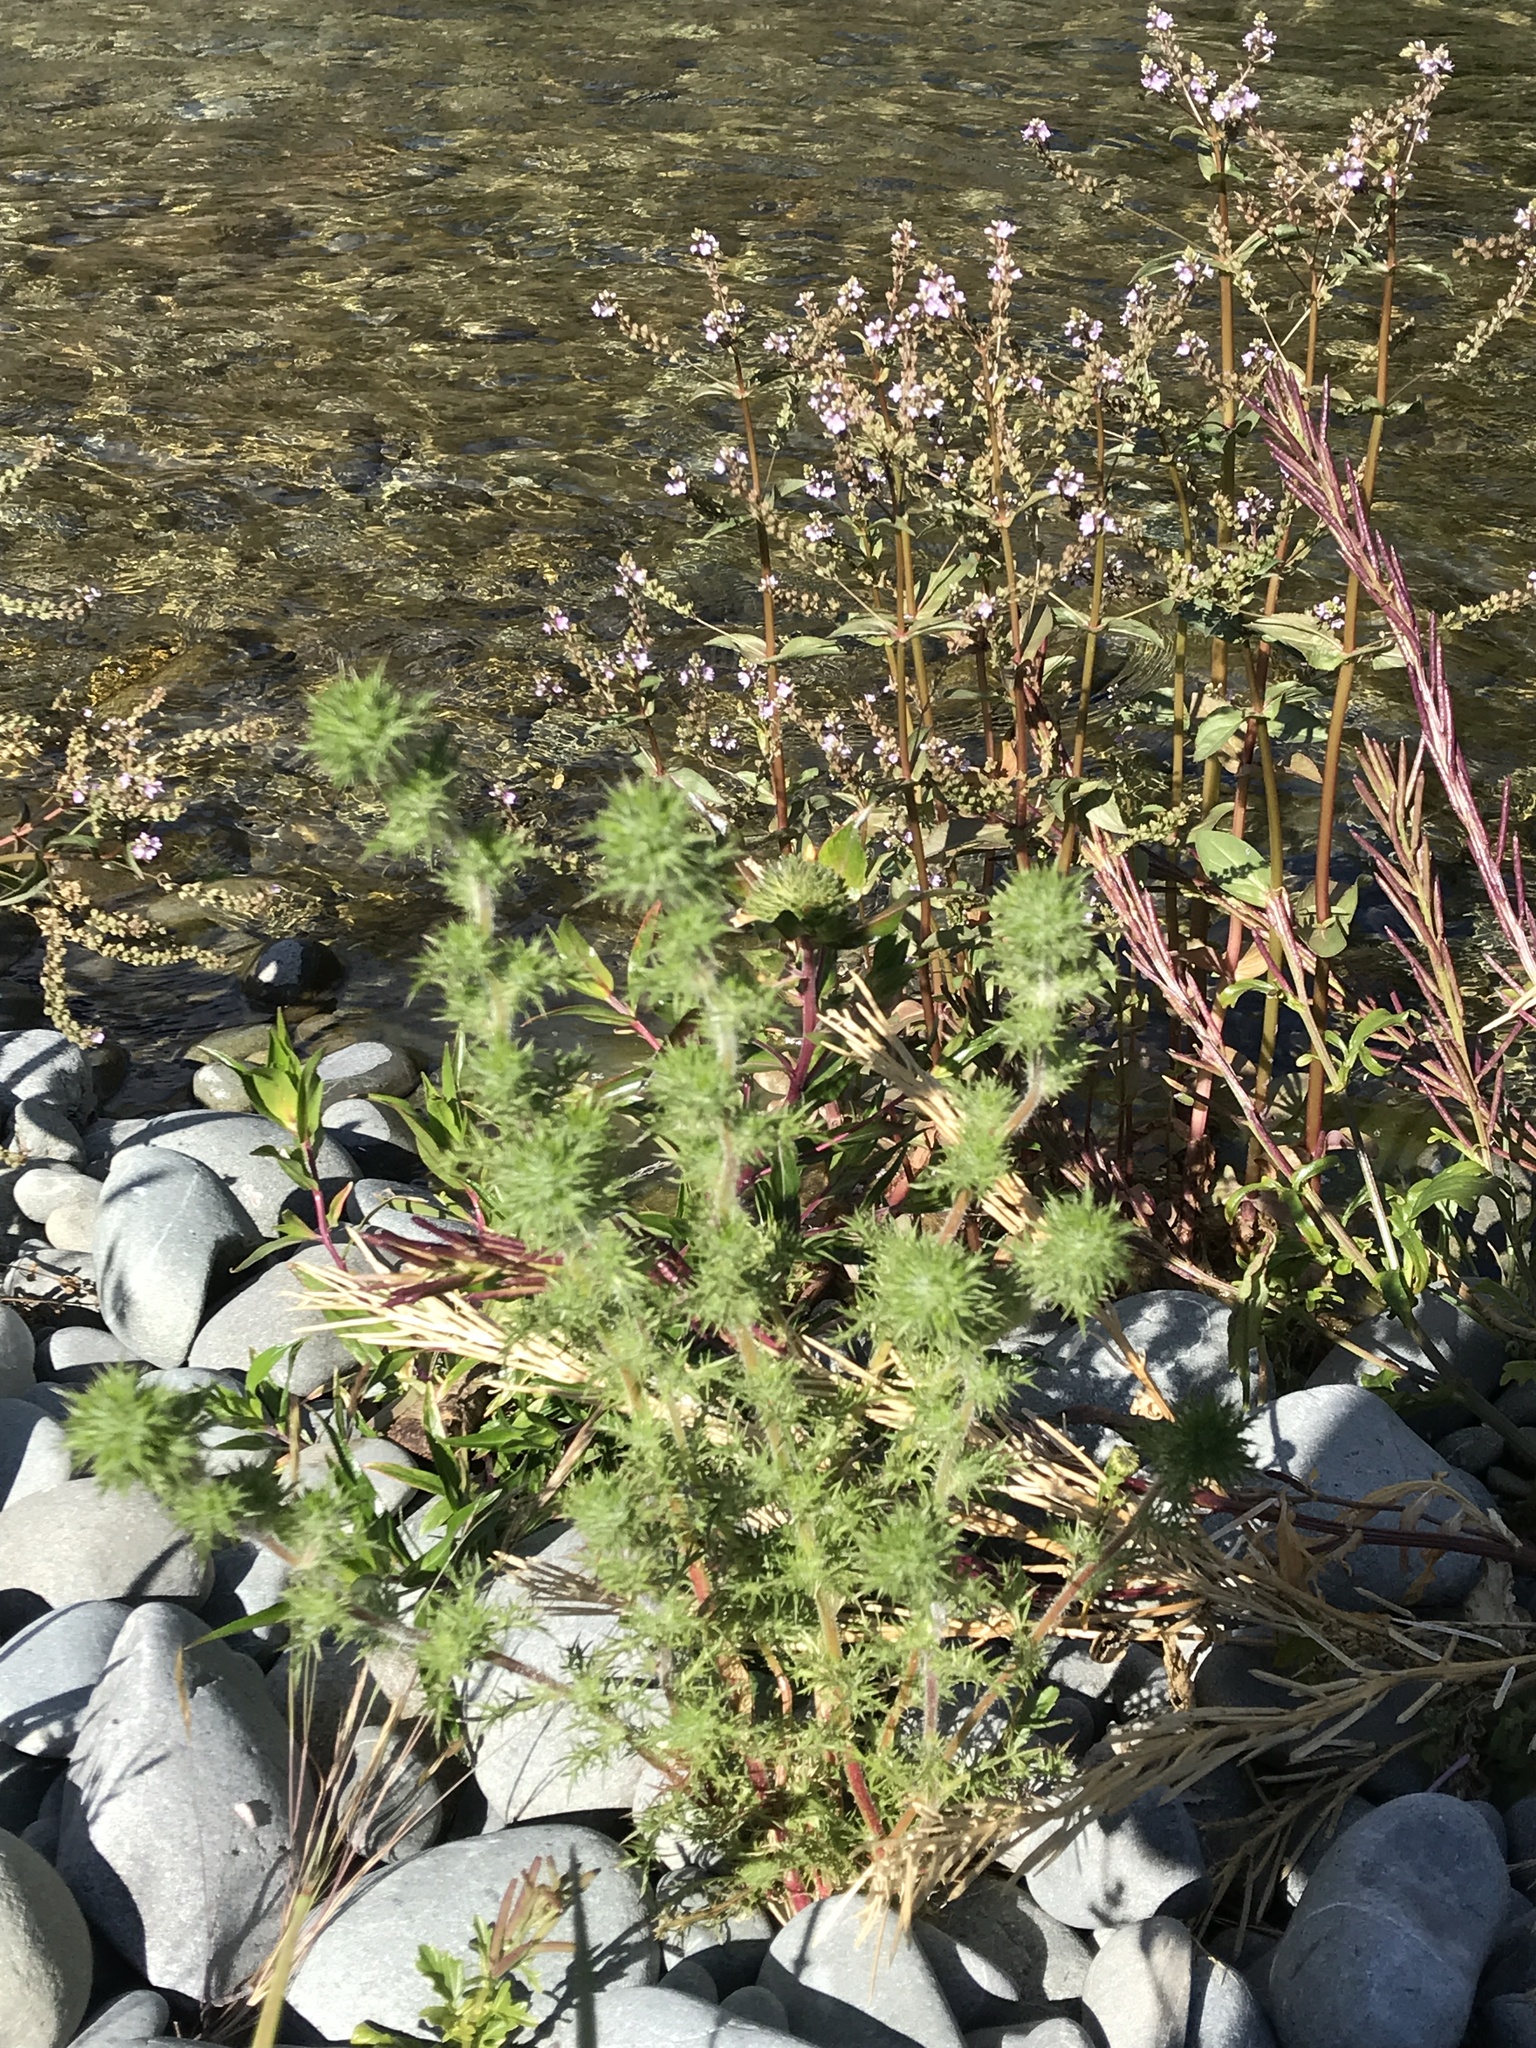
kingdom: Plantae
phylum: Tracheophyta
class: Magnoliopsida
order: Ericales
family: Polemoniaceae
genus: Navarretia
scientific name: Navarretia squarrosa
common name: Skunkweed
